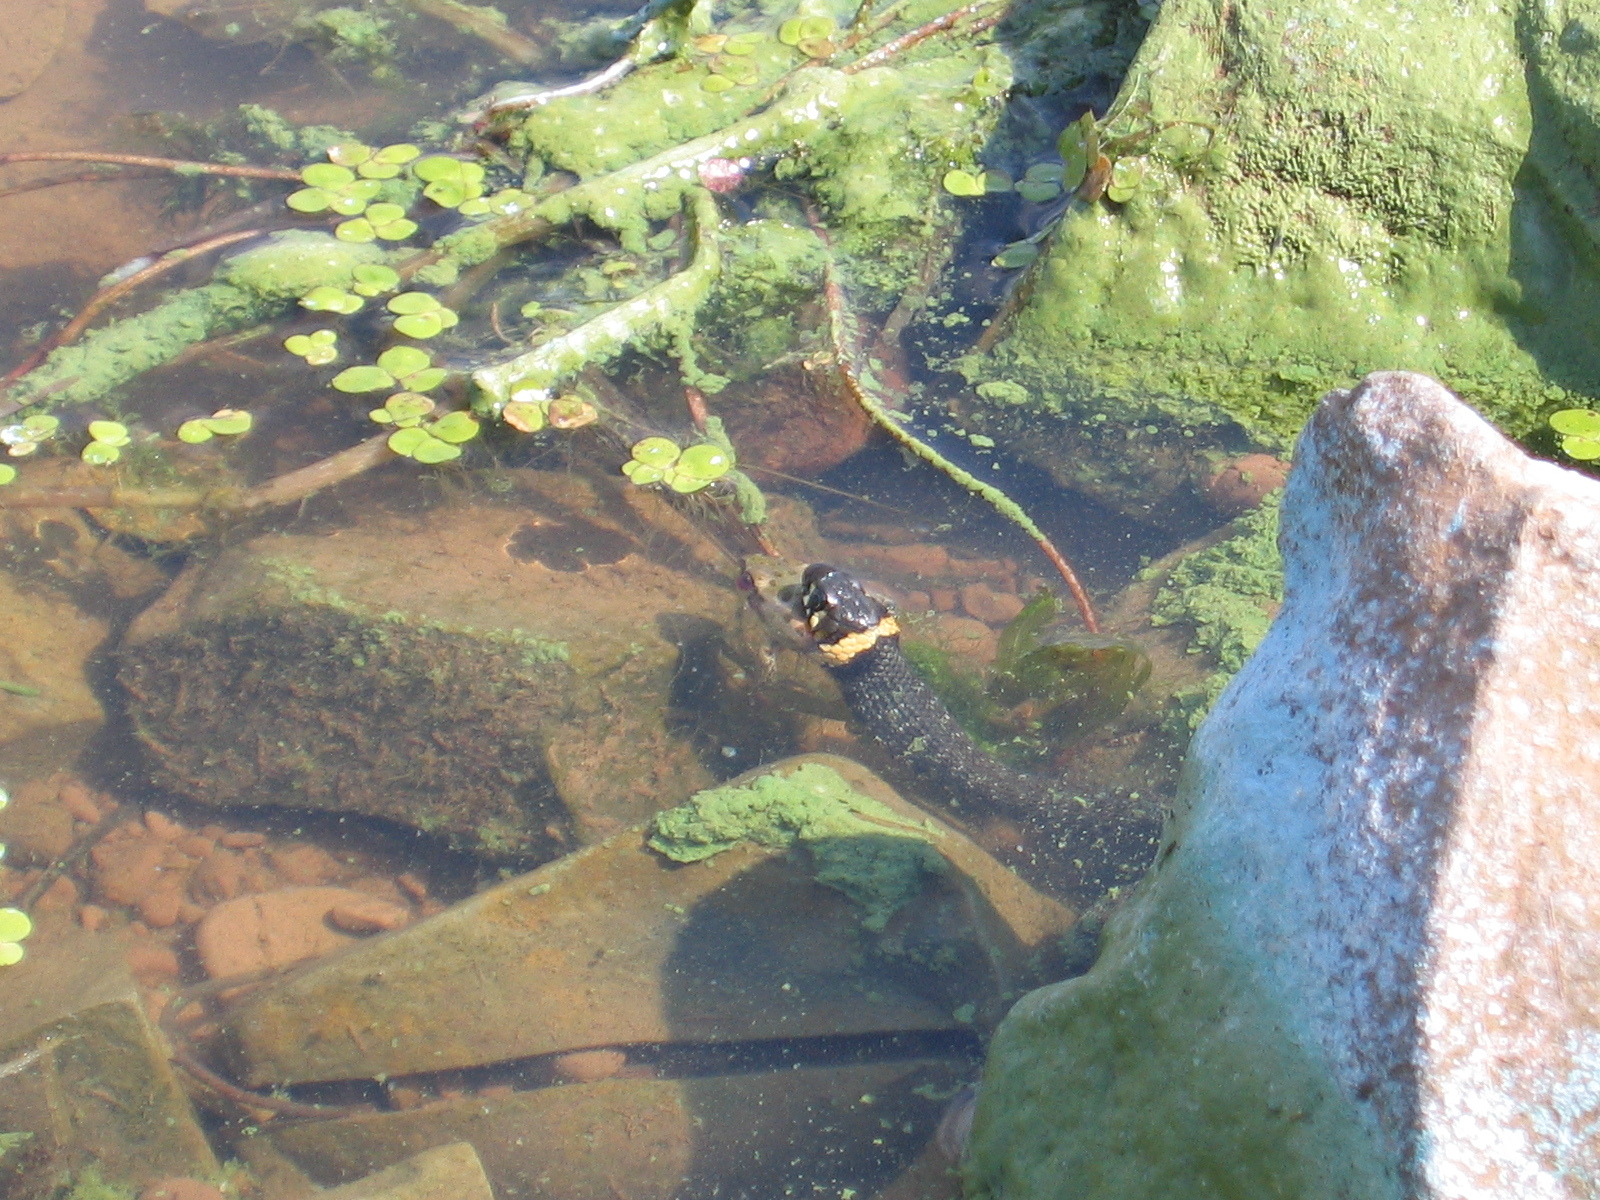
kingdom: Animalia
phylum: Chordata
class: Squamata
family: Colubridae
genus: Natrix
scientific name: Natrix natrix
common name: Grass snake
